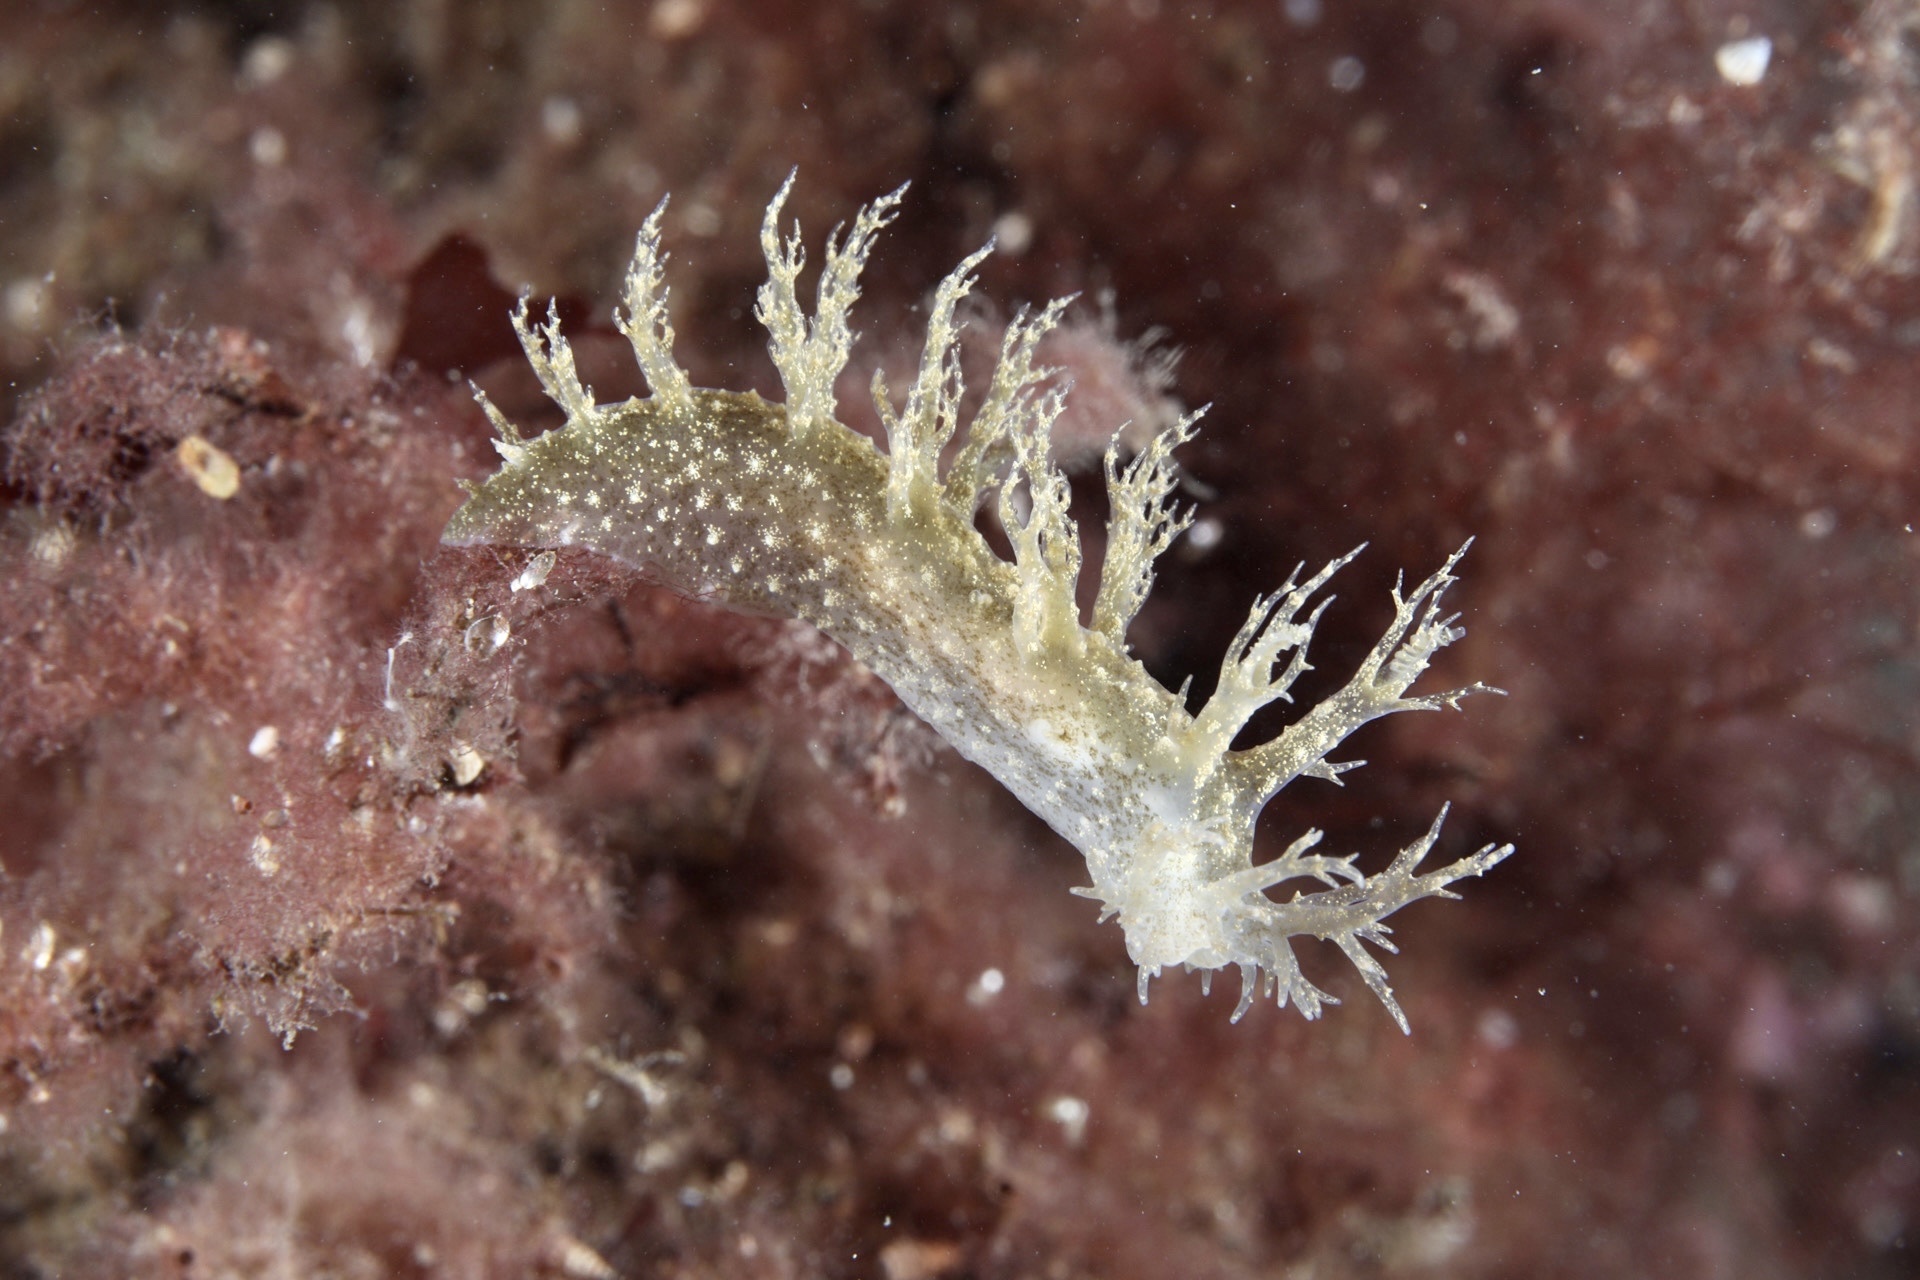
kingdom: Animalia
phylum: Mollusca
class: Gastropoda
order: Nudibranchia
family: Dendronotidae
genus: Dendronotus
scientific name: Dendronotus frondosus
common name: Bushy-backed nudibranch
